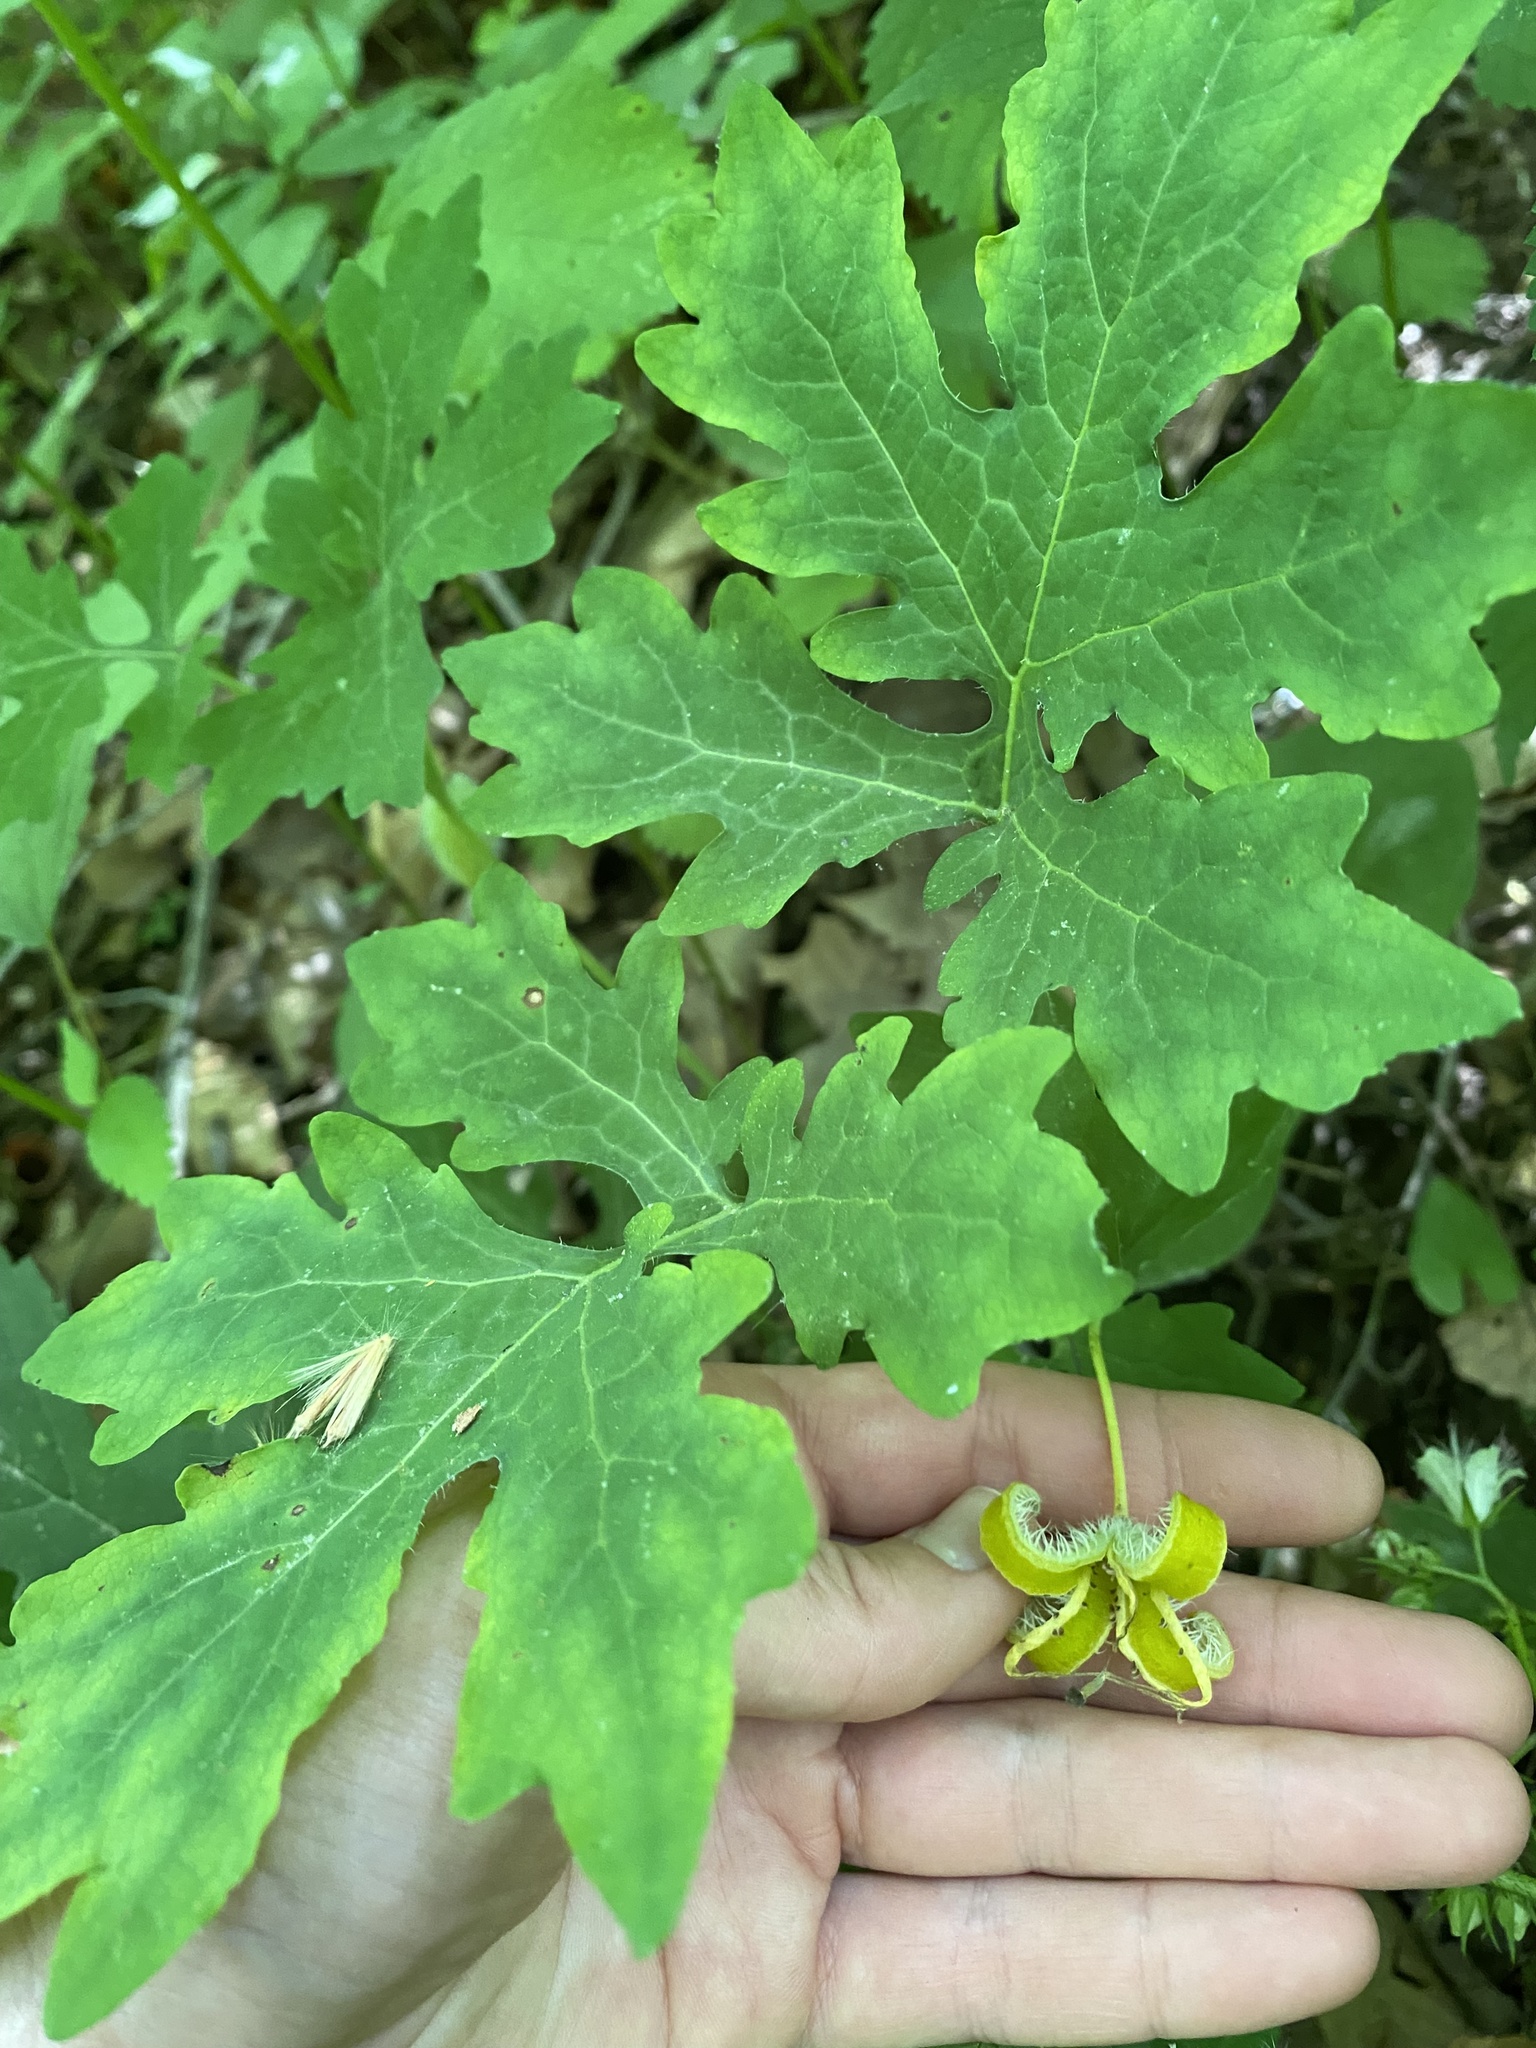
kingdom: Plantae
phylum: Tracheophyta
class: Magnoliopsida
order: Ranunculales
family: Papaveraceae
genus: Stylophorum
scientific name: Stylophorum diphyllum
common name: Celandine poppy
